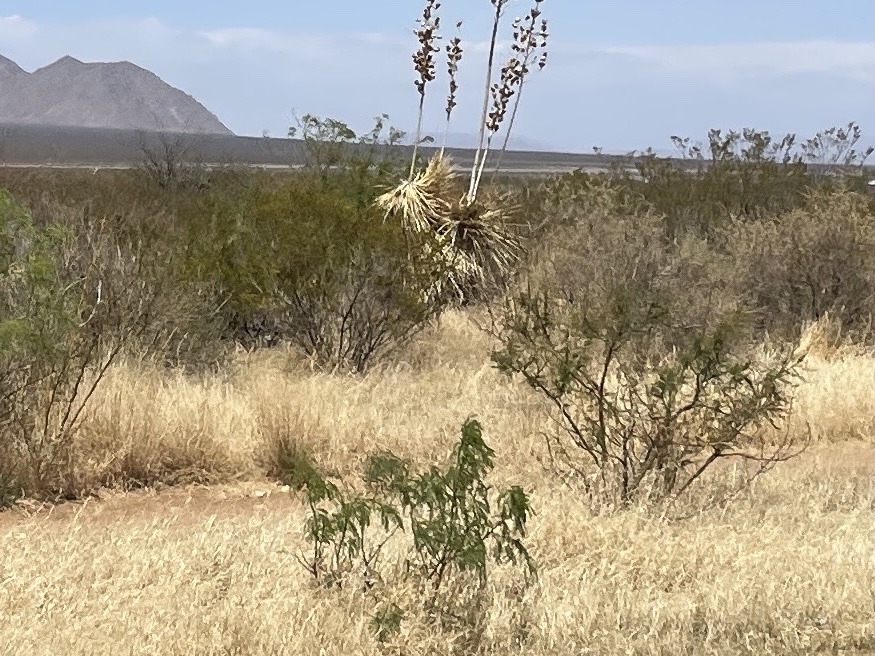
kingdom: Plantae
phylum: Tracheophyta
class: Magnoliopsida
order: Zygophyllales
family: Zygophyllaceae
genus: Larrea
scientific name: Larrea tridentata
